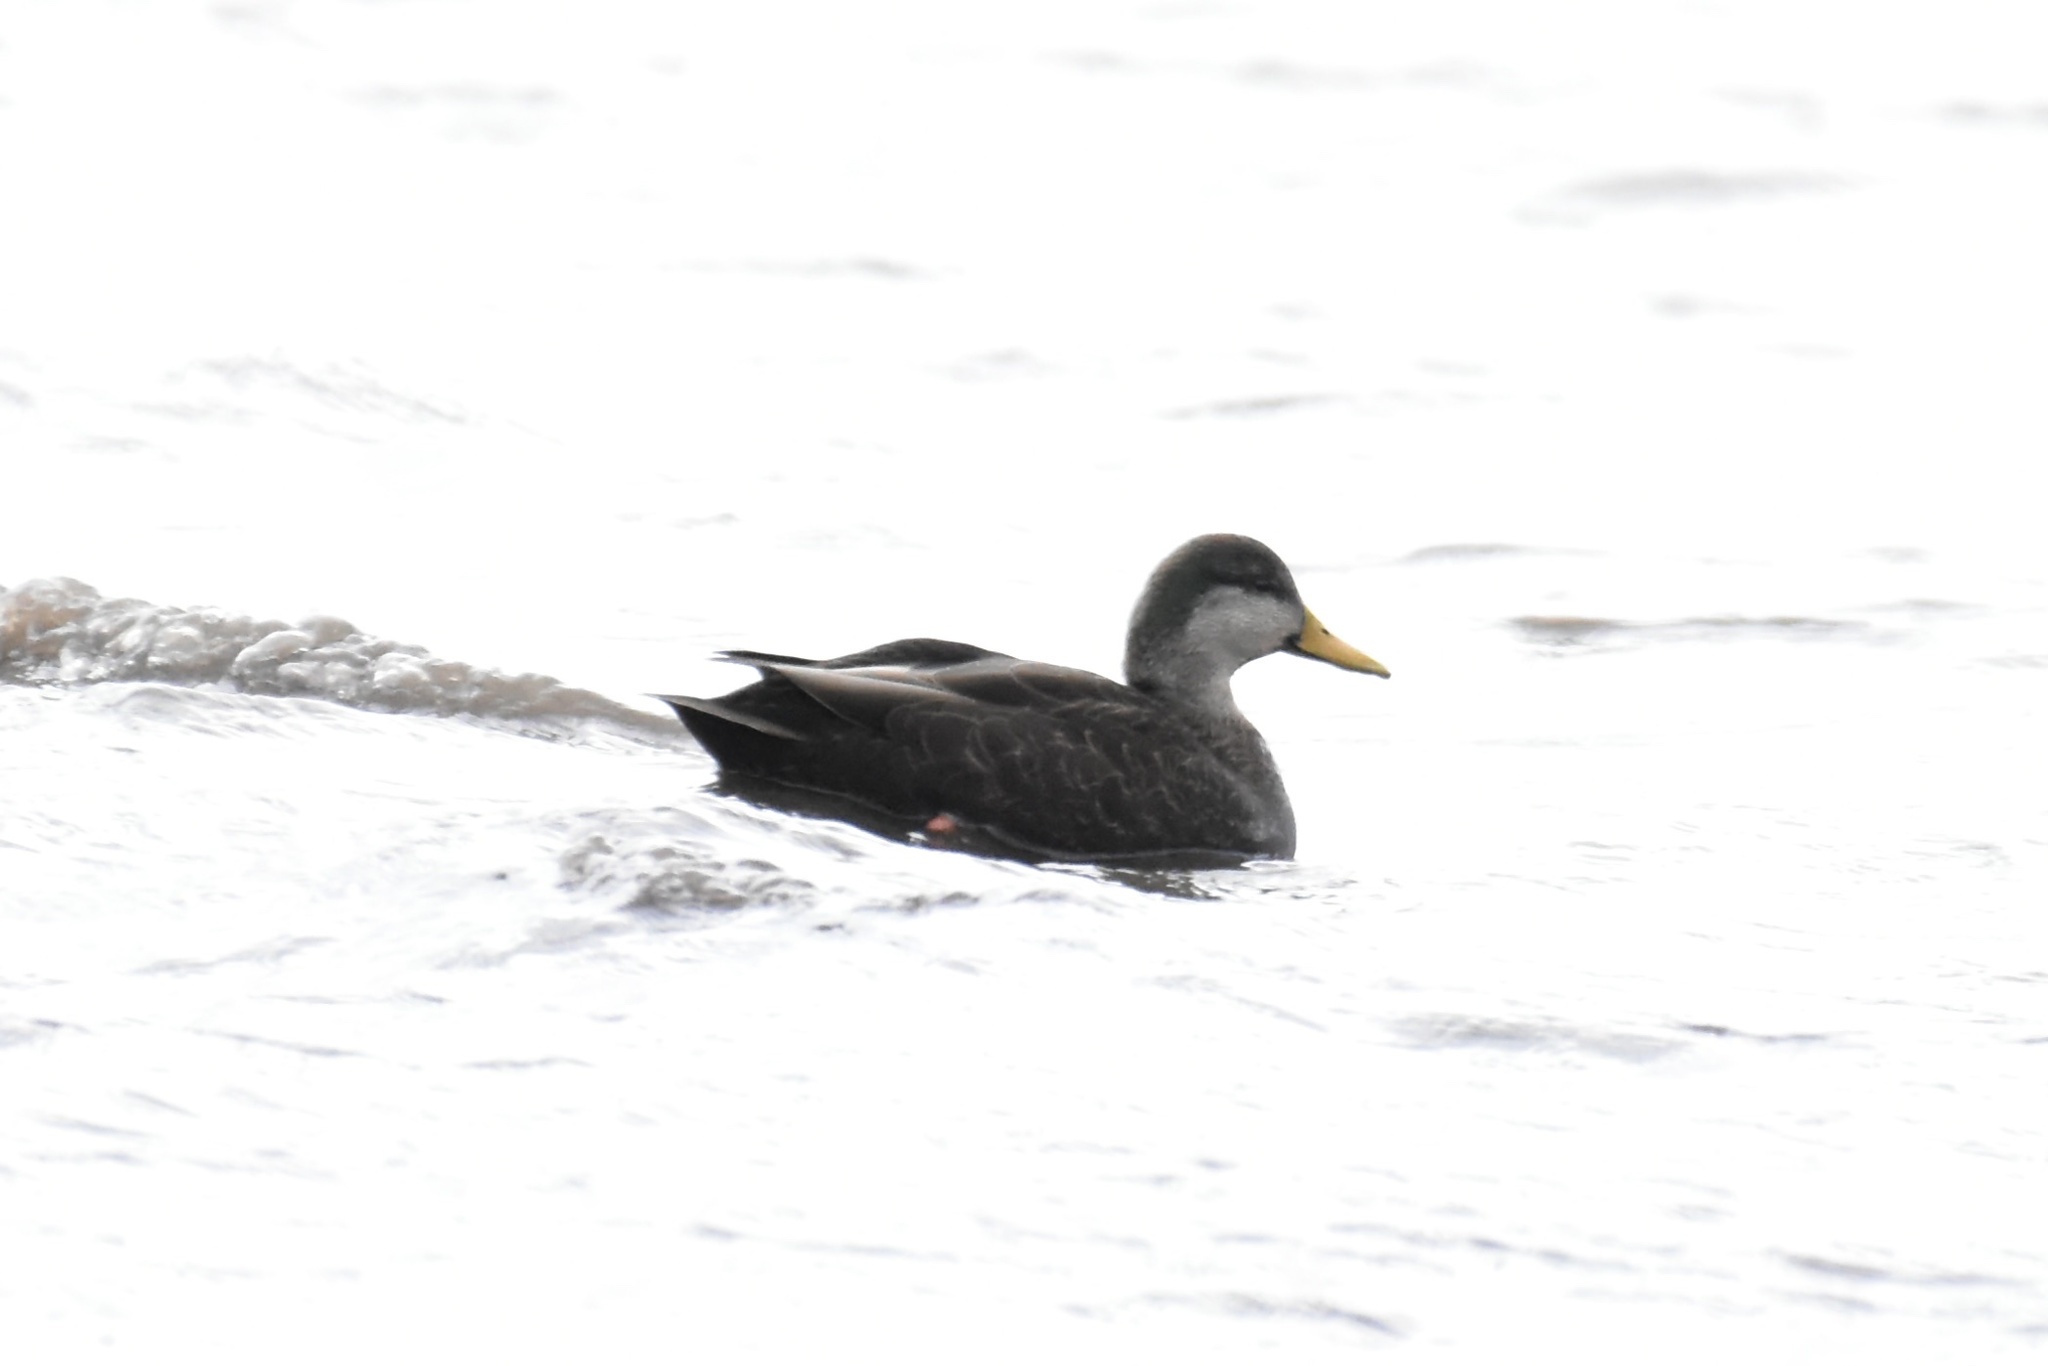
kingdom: Animalia
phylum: Chordata
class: Aves
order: Anseriformes
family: Anatidae
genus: Anas
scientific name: Anas rubripes
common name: American black duck
